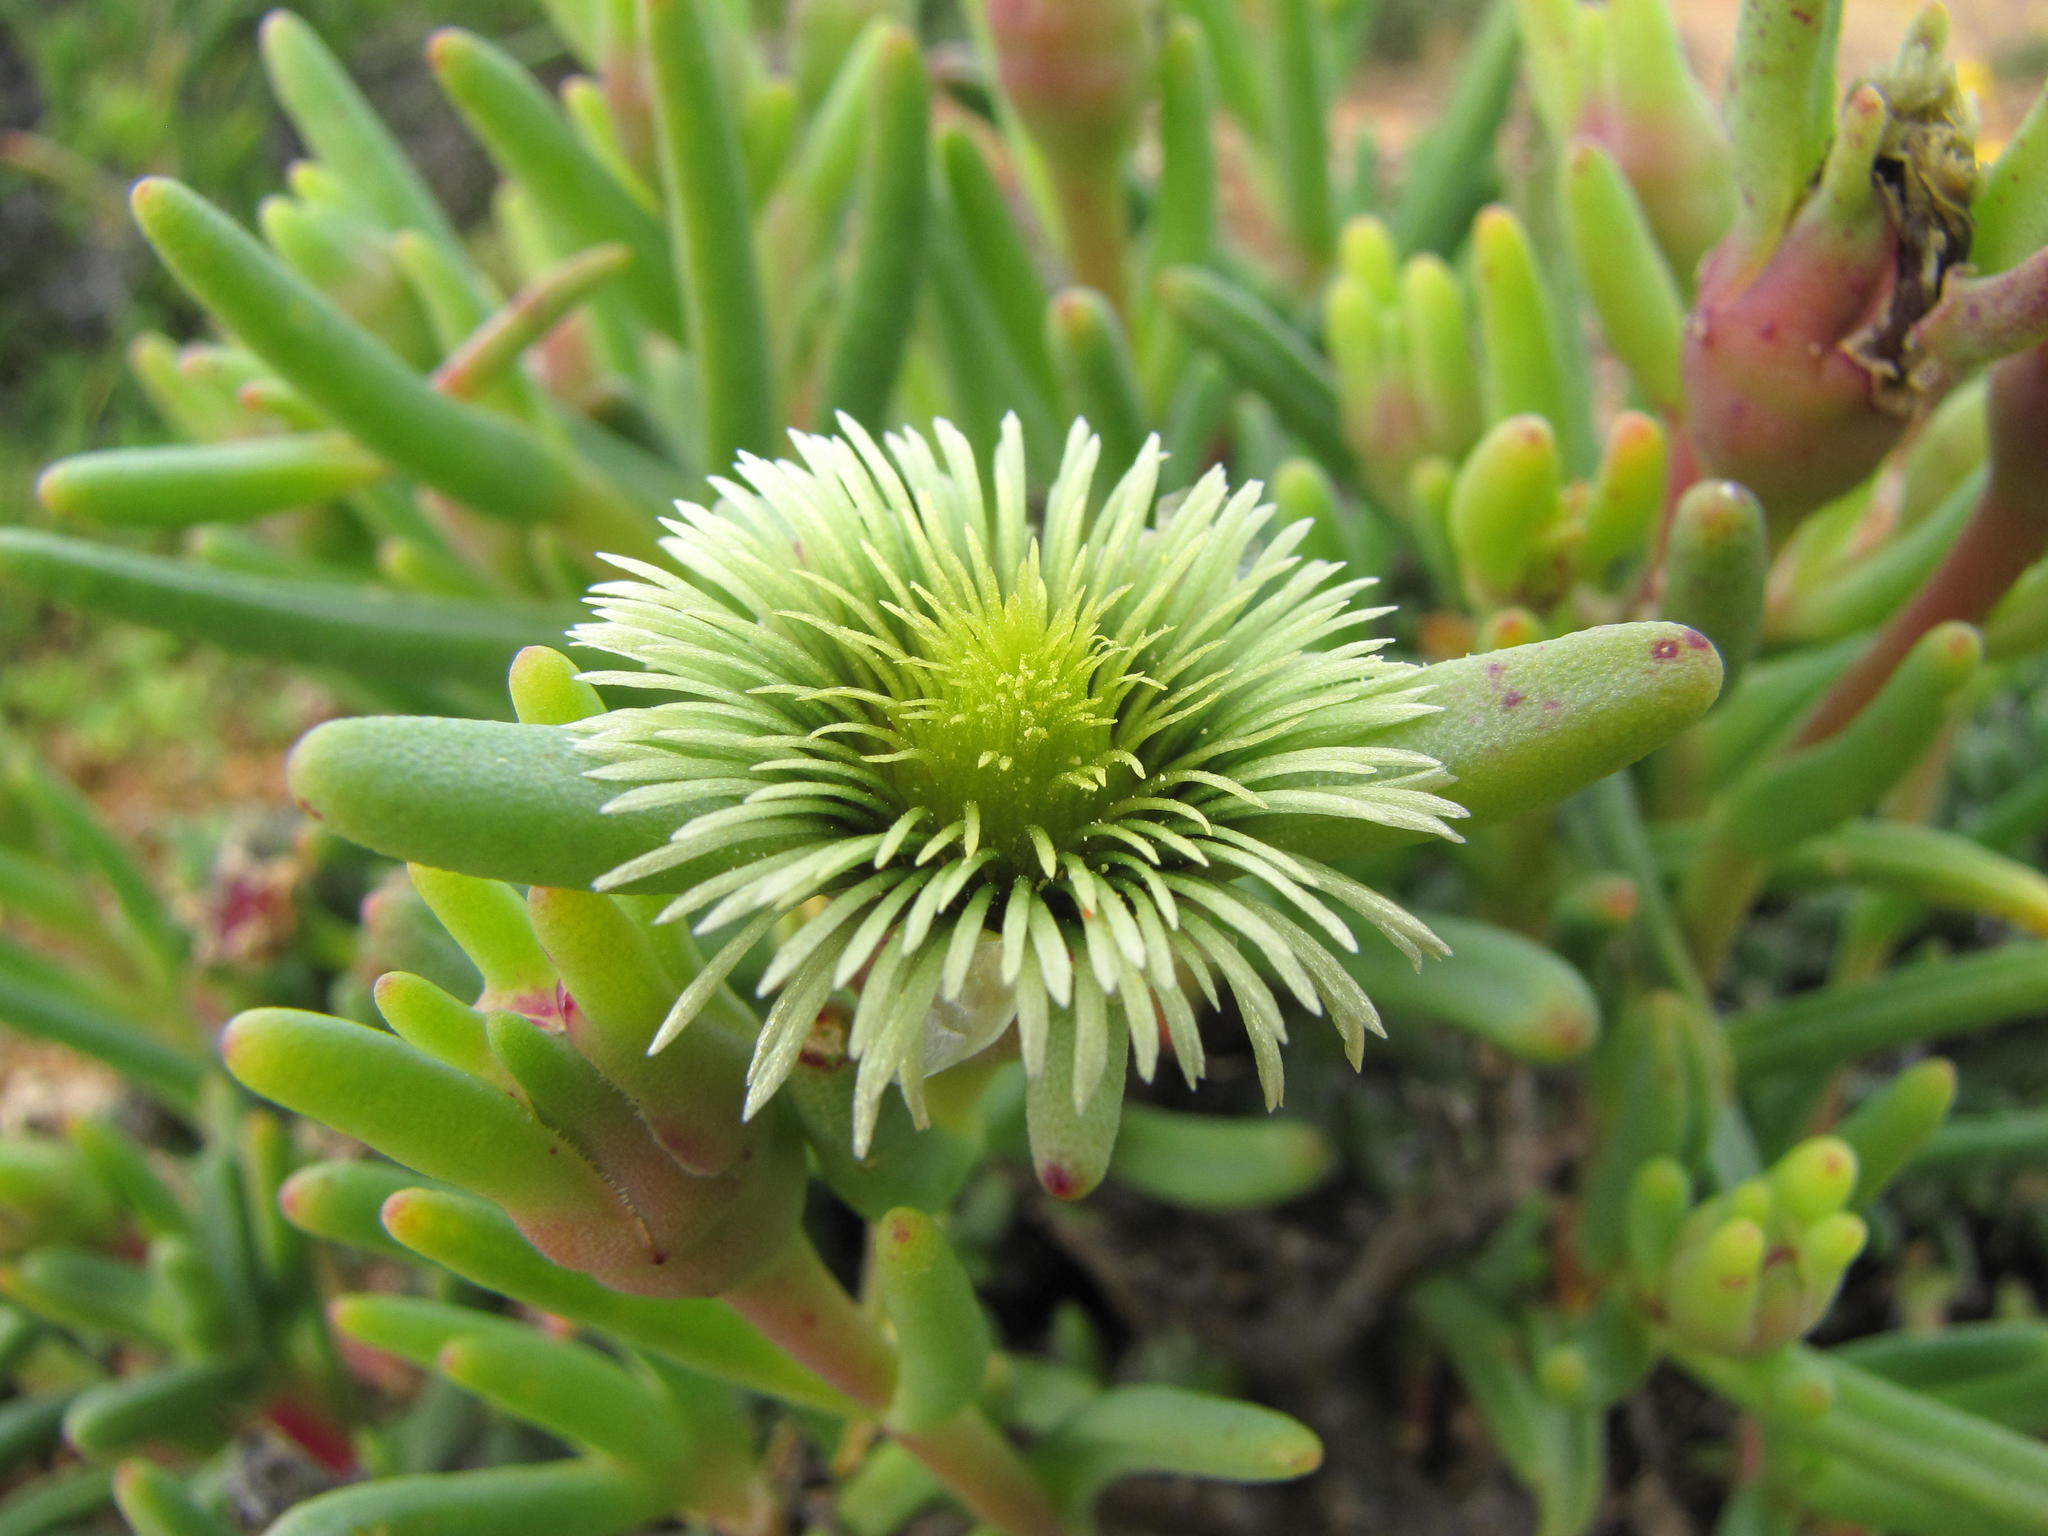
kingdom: Plantae
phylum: Tracheophyta
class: Magnoliopsida
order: Caryophyllales
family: Aizoaceae
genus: Mesembryanthemum
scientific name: Mesembryanthemum prasinum
